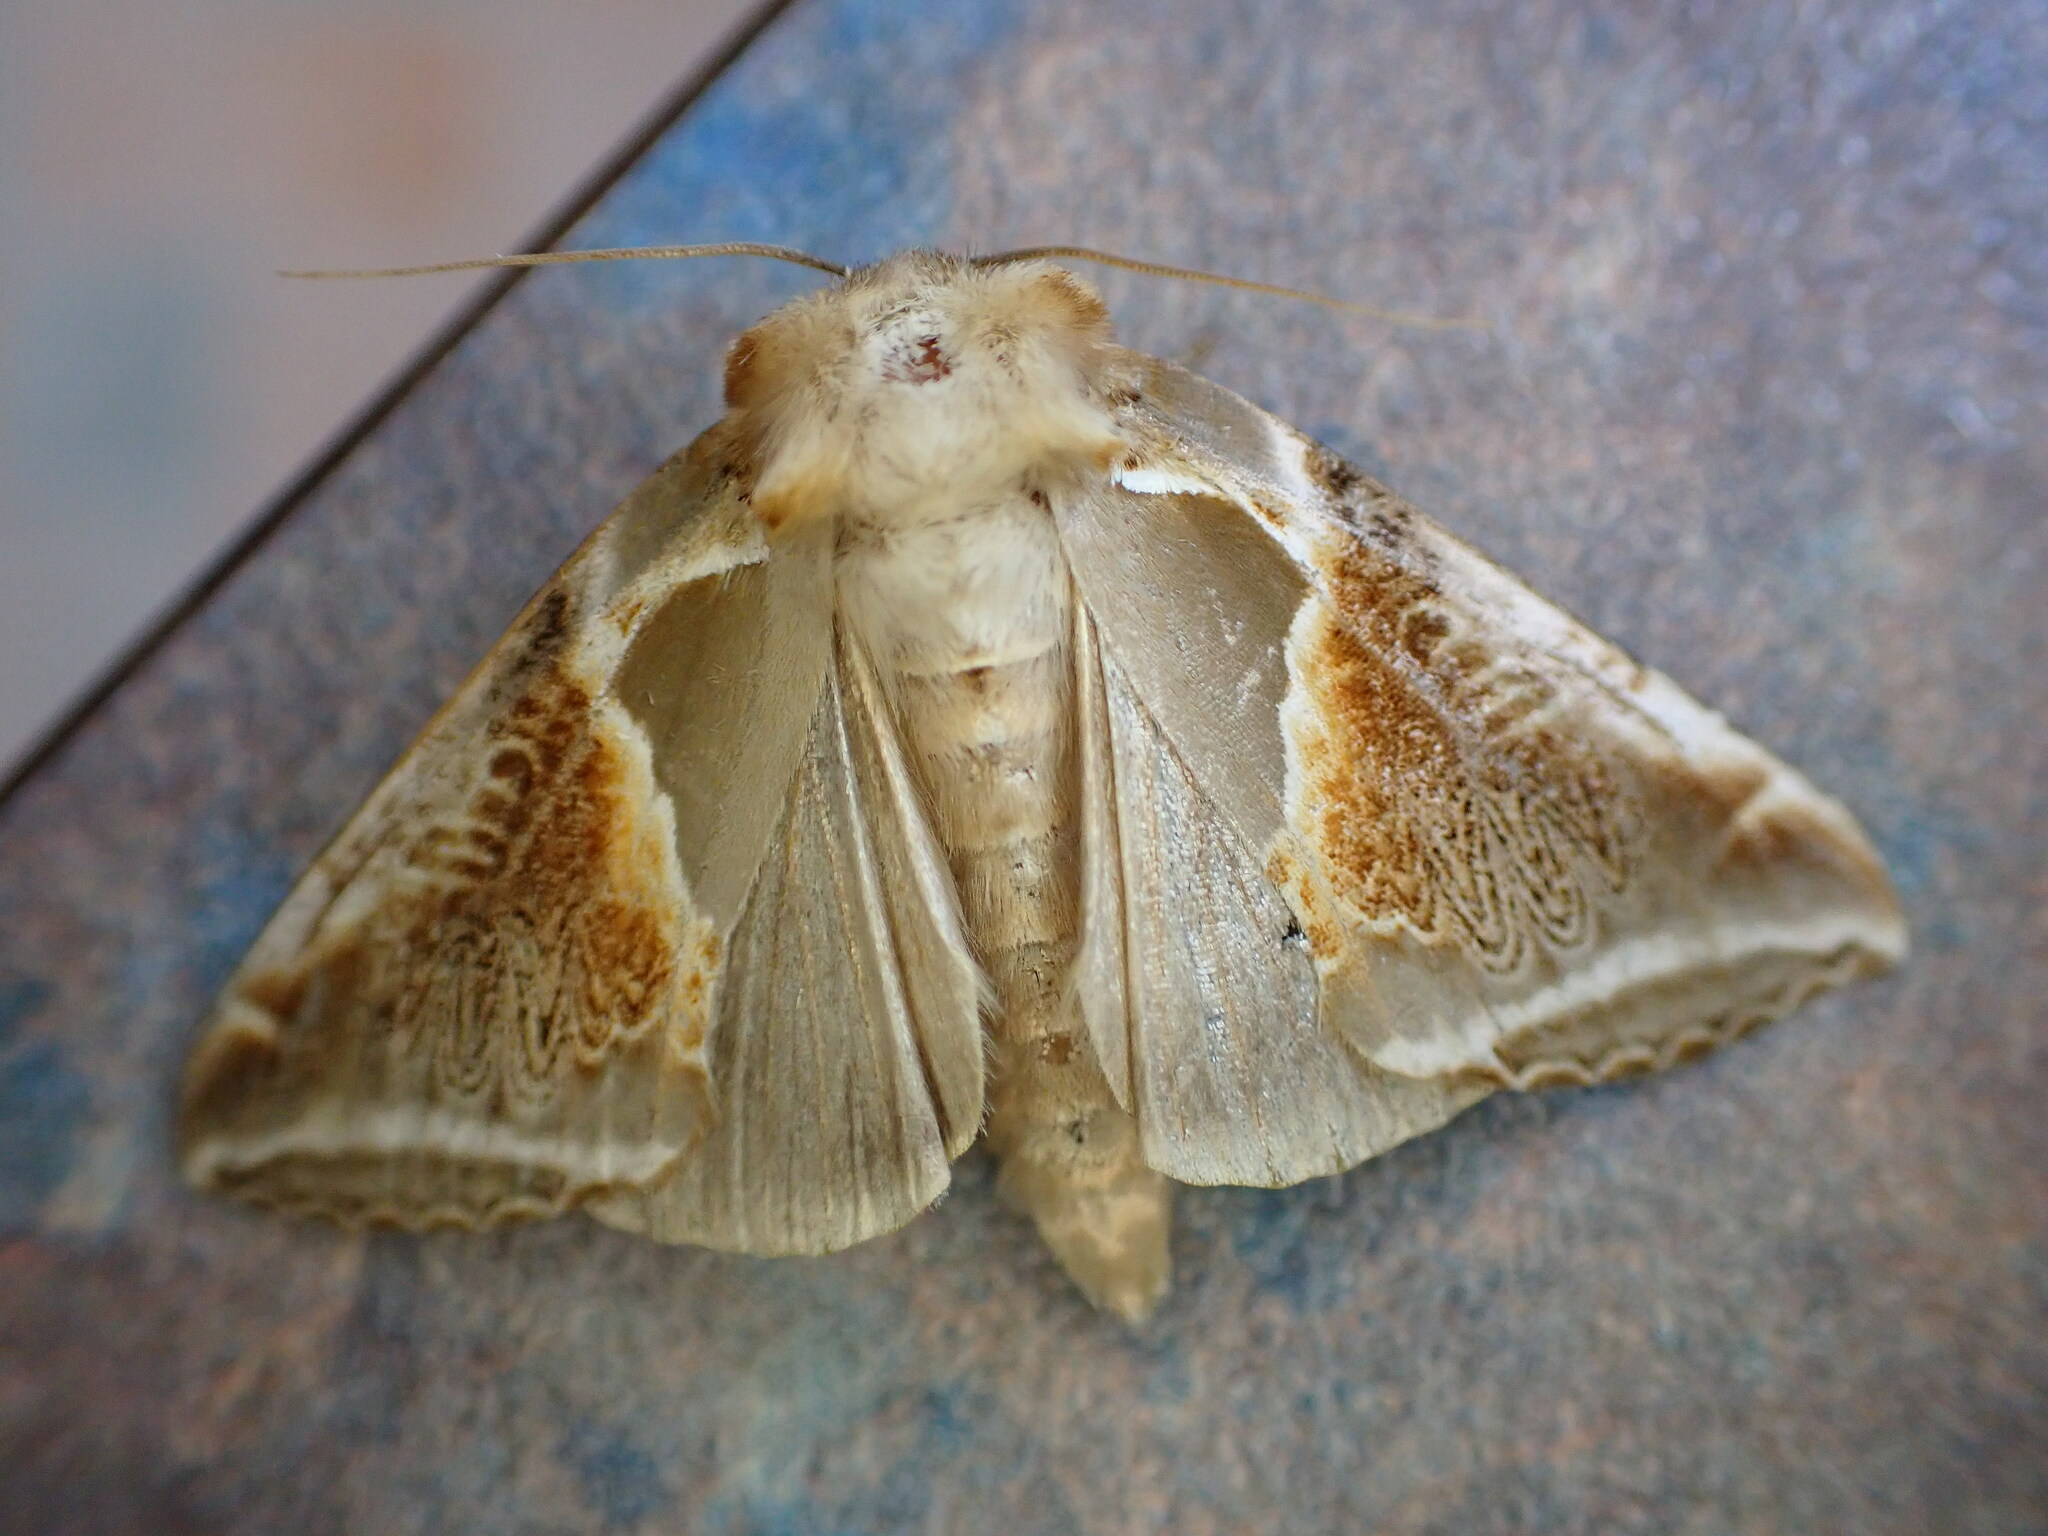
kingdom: Animalia
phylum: Arthropoda
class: Insecta
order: Lepidoptera
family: Drepanidae
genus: Habrosyne
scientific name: Habrosyne pyritoides
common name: Buff arches
